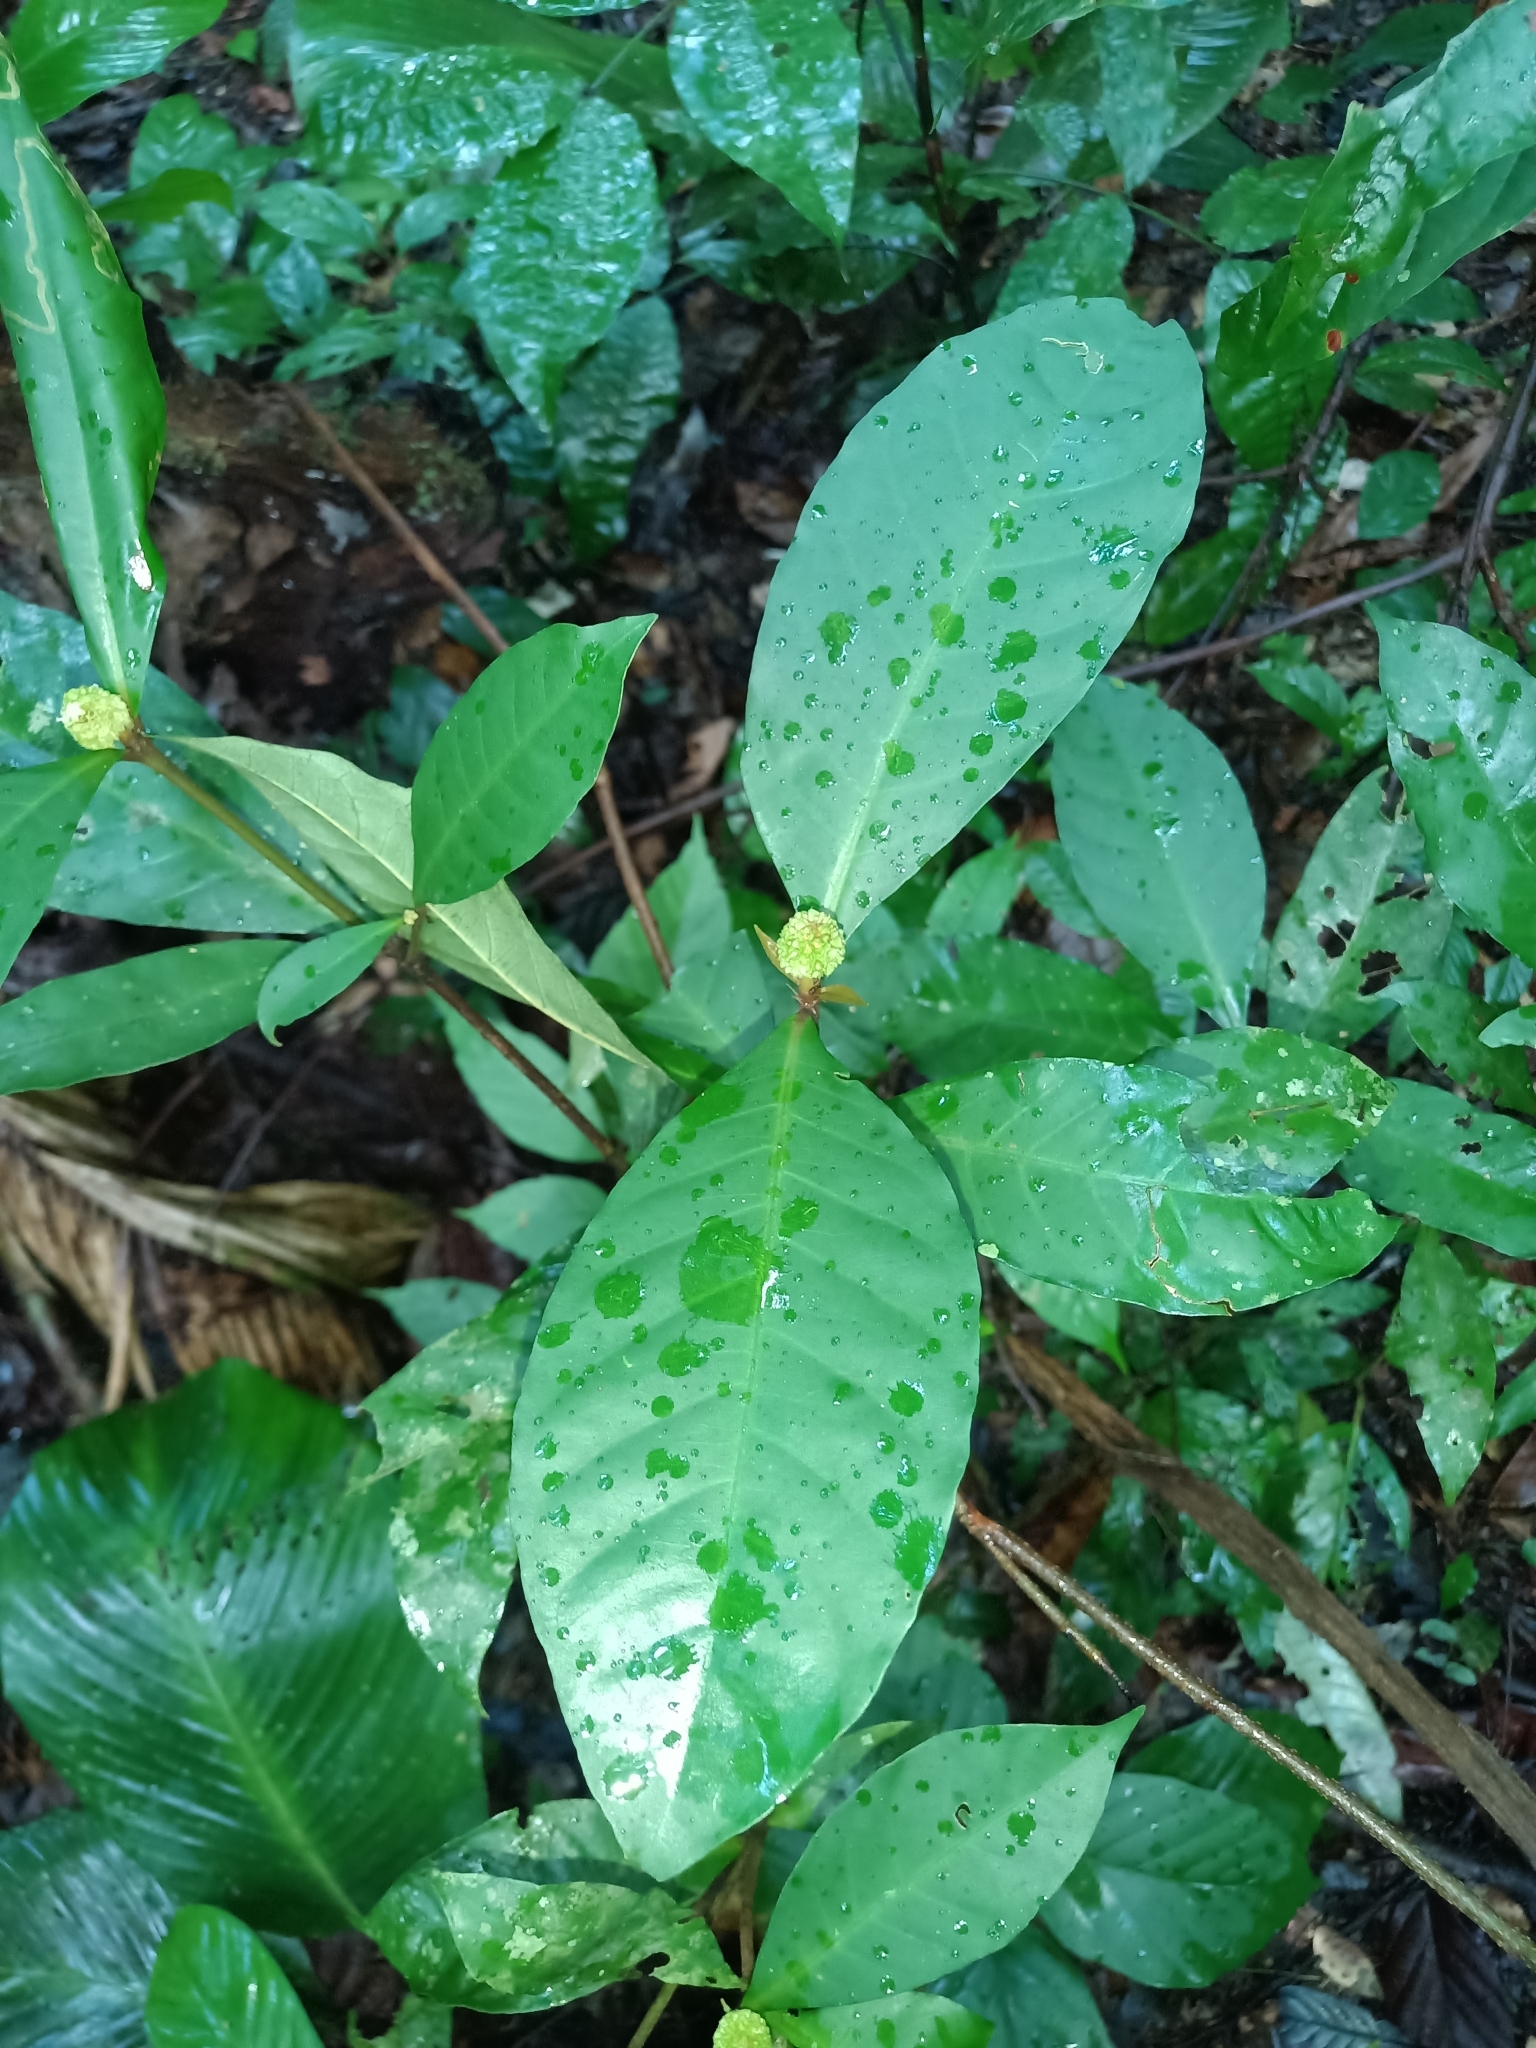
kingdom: Plantae
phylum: Tracheophyta
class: Magnoliopsida
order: Gentianales
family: Rubiaceae
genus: Eumachia
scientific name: Eumachia guianensis
